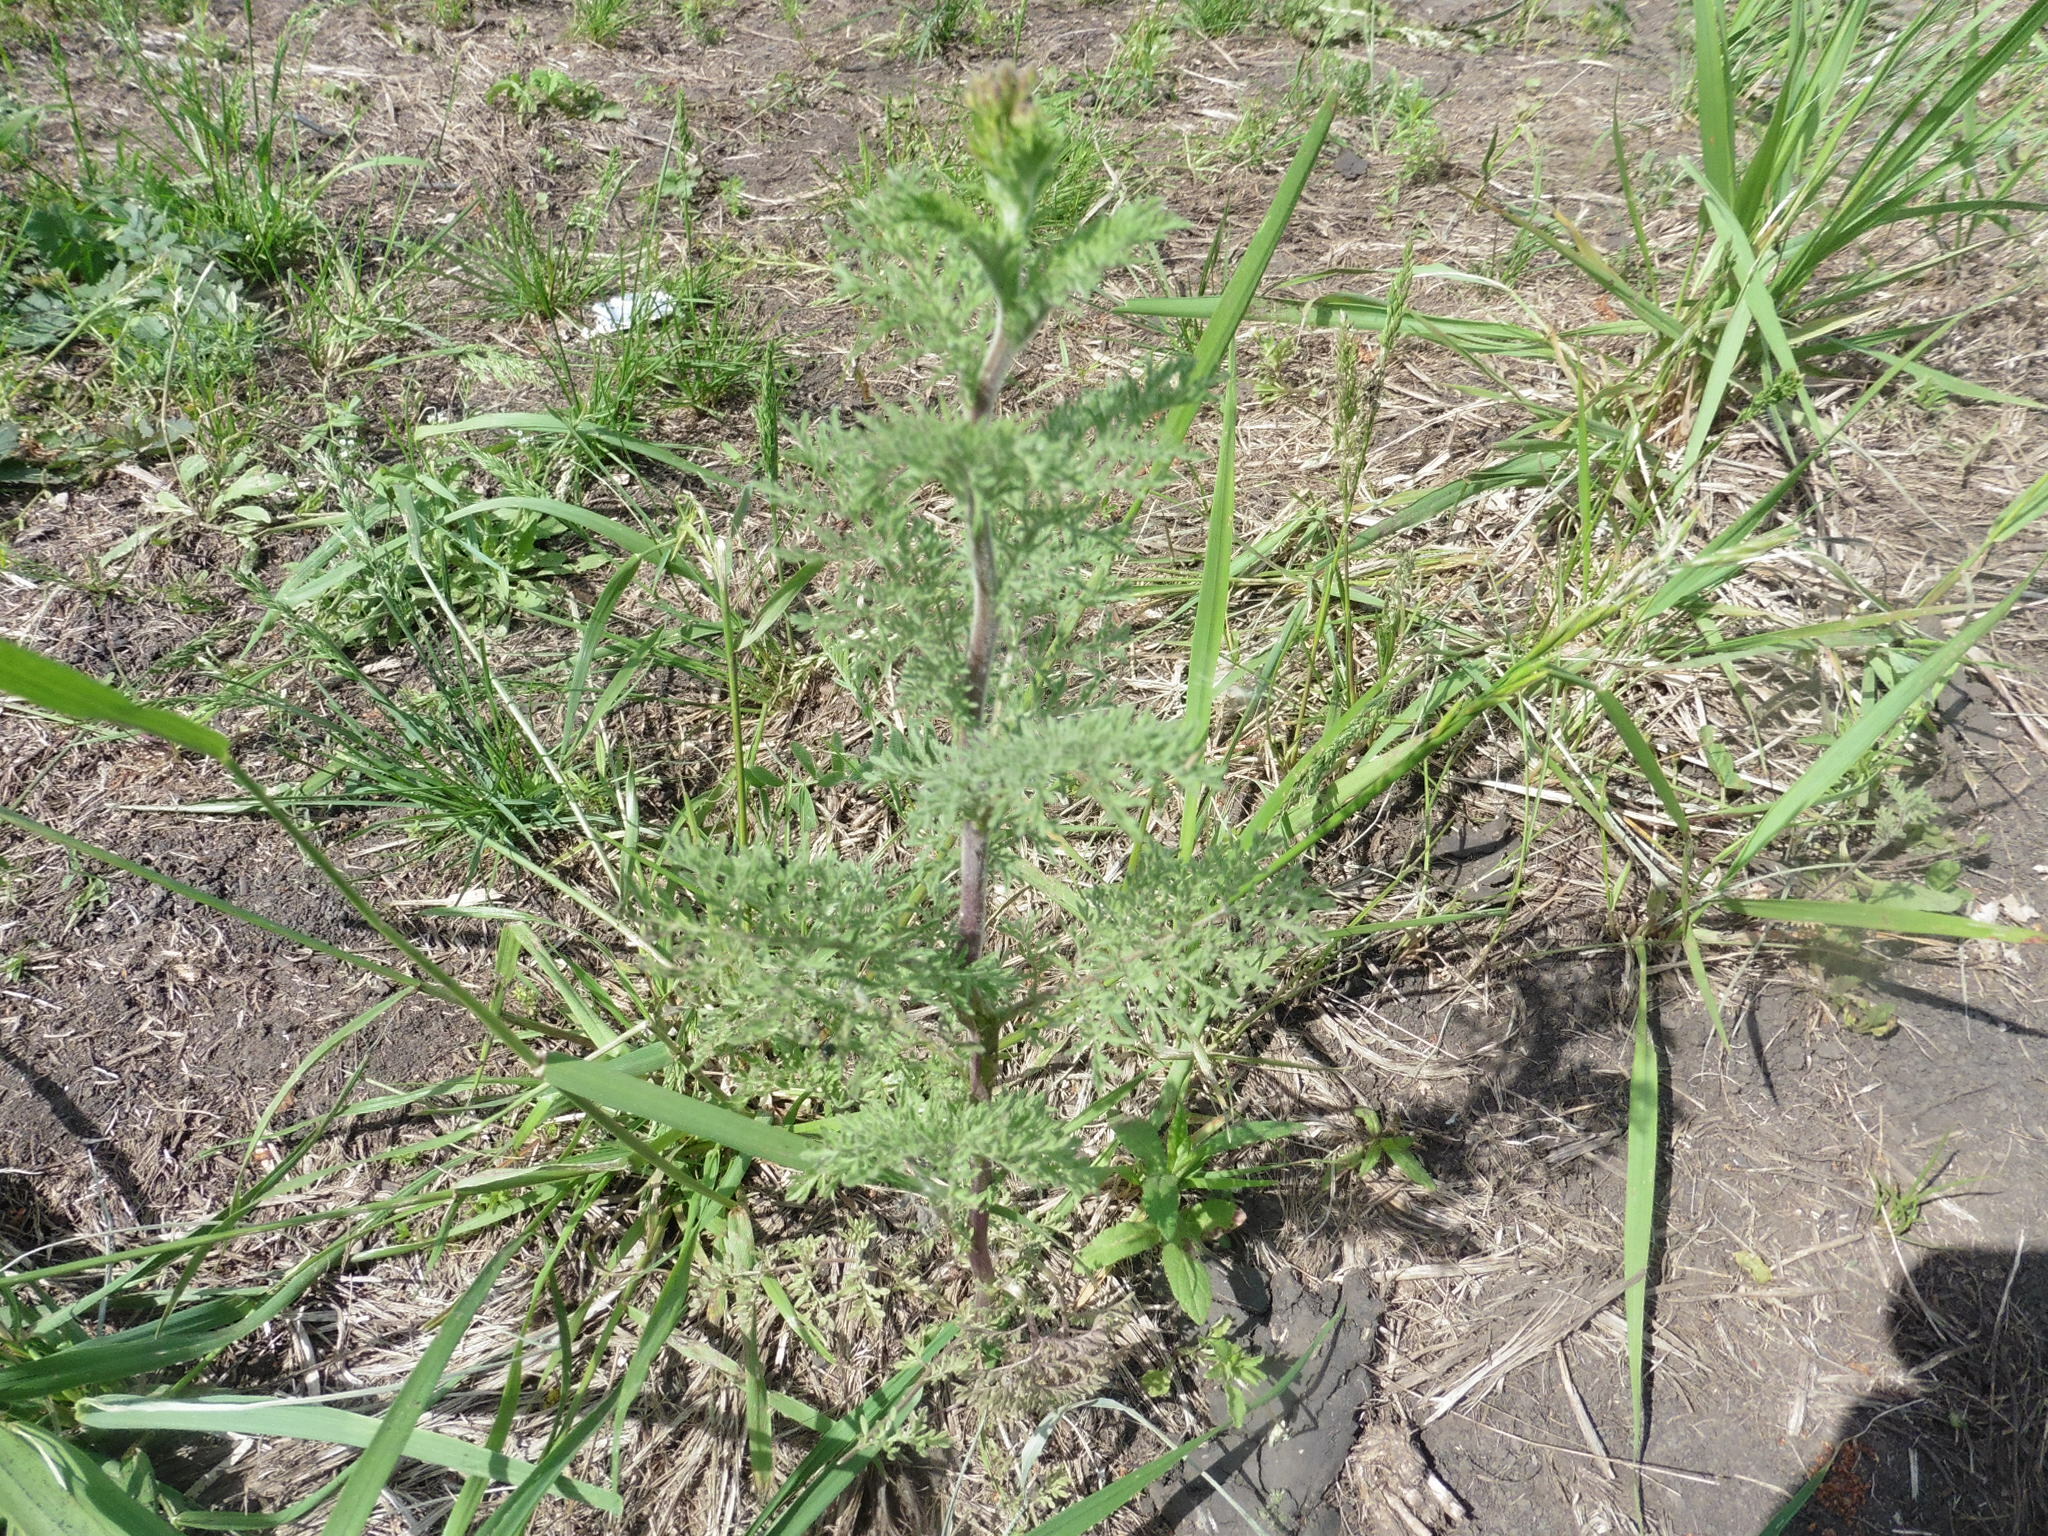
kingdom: Plantae
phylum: Tracheophyta
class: Magnoliopsida
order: Brassicales
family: Brassicaceae
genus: Descurainia
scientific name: Descurainia sophia
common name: Flixweed
